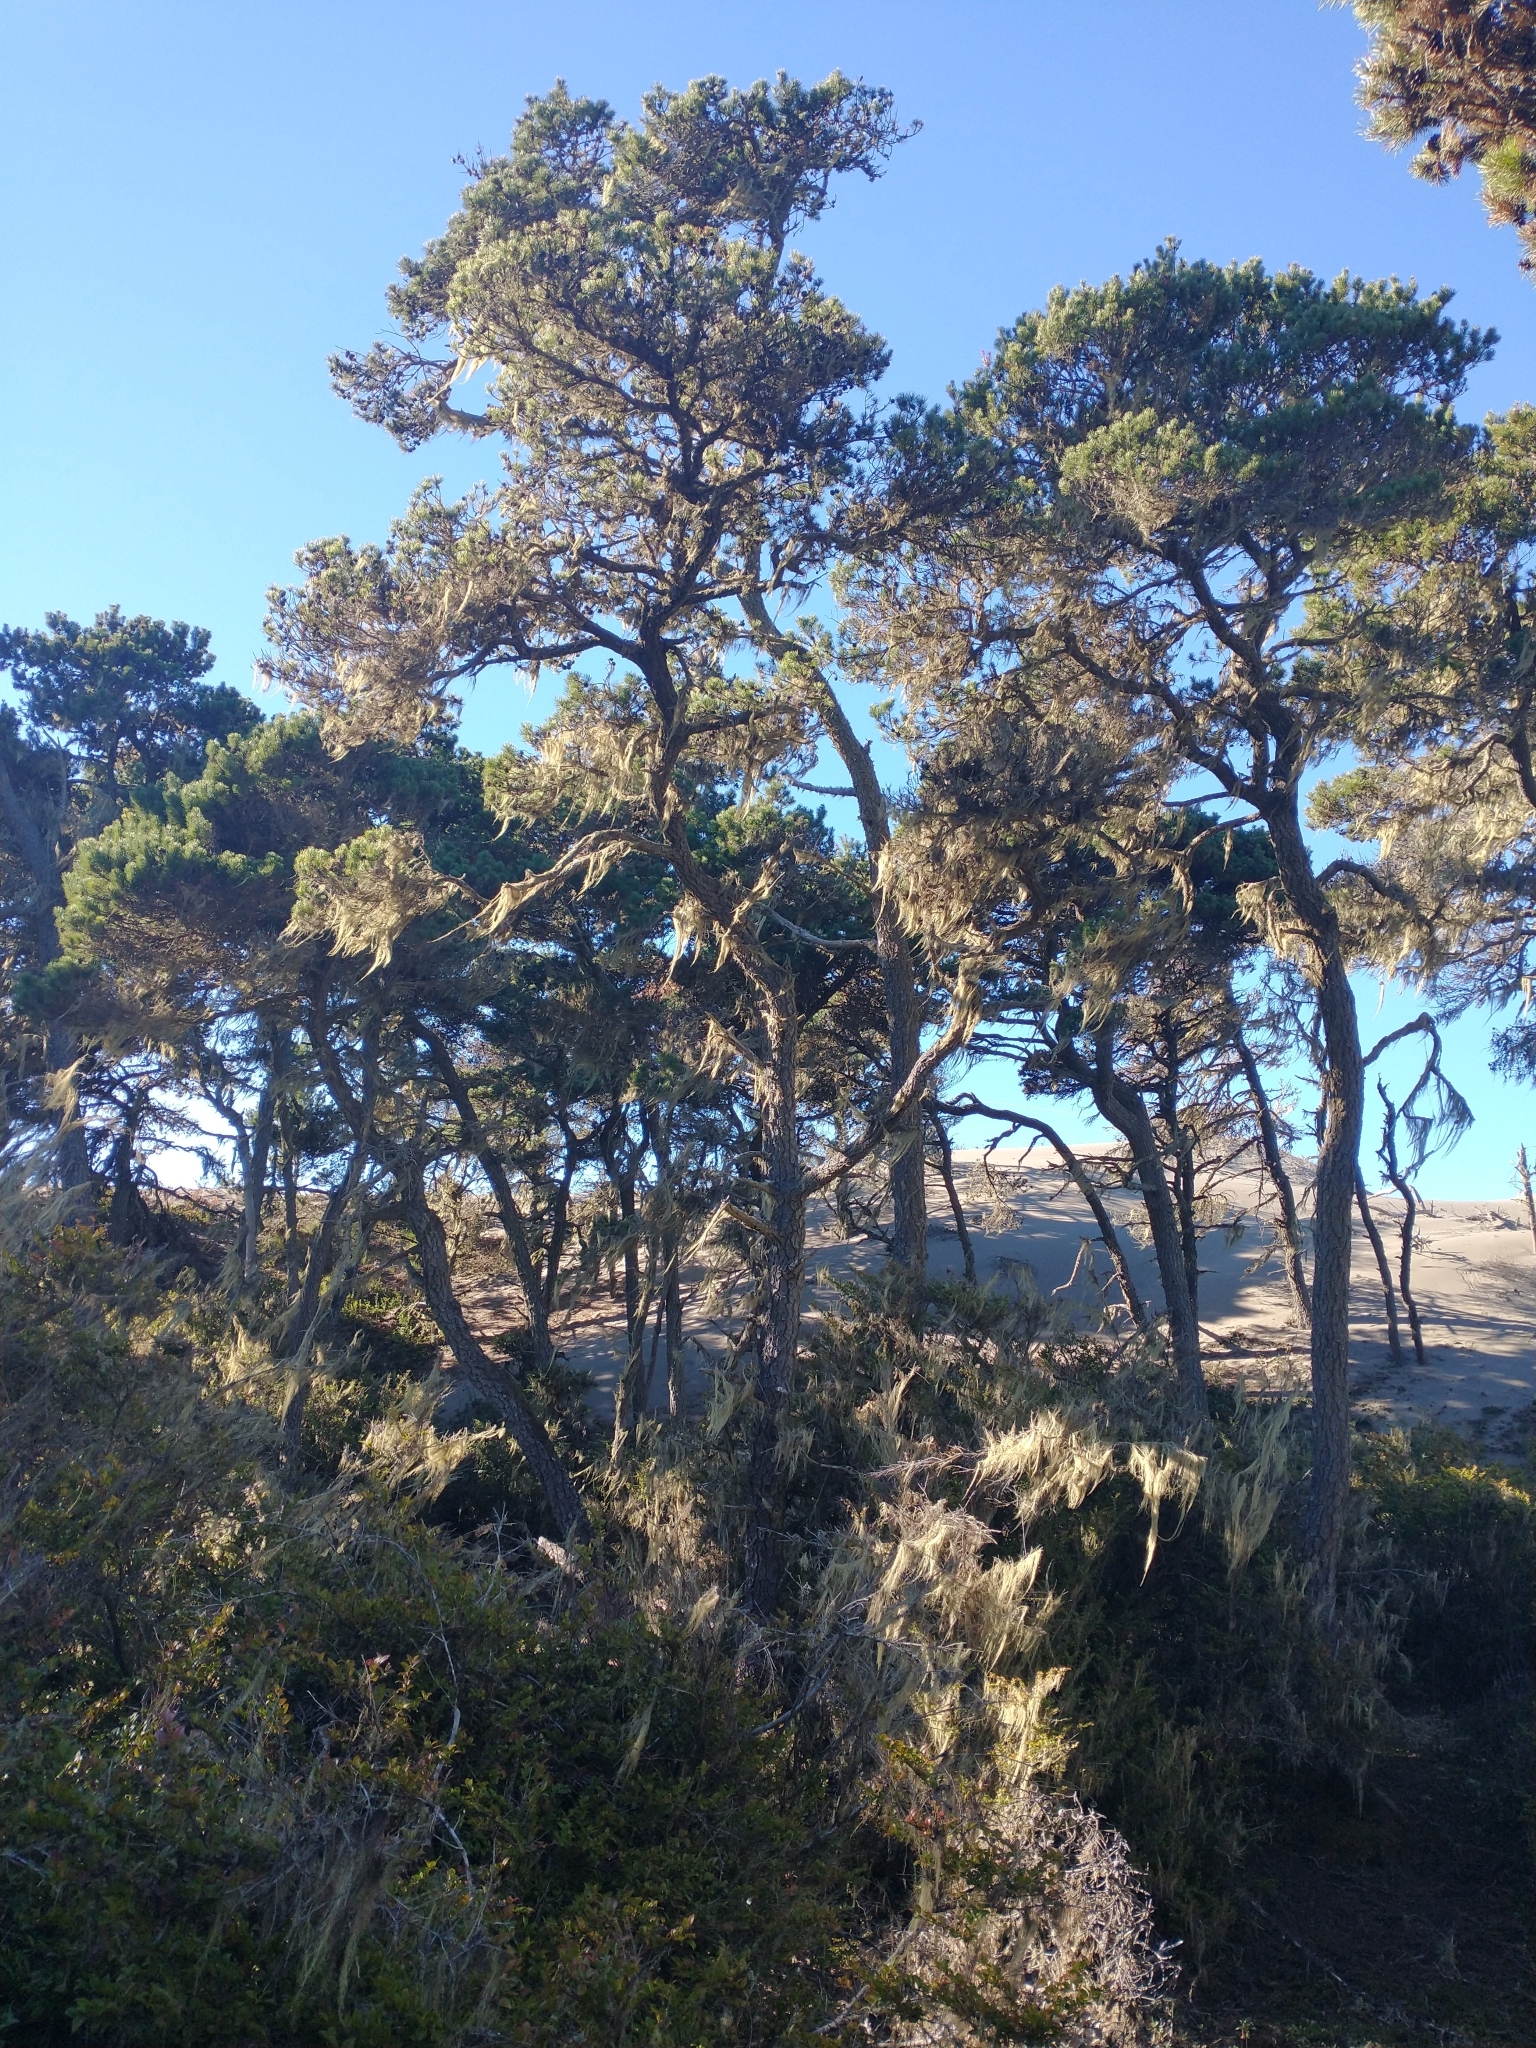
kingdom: Plantae
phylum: Tracheophyta
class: Pinopsida
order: Pinales
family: Pinaceae
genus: Pinus
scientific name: Pinus contorta
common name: Lodgepole pine
